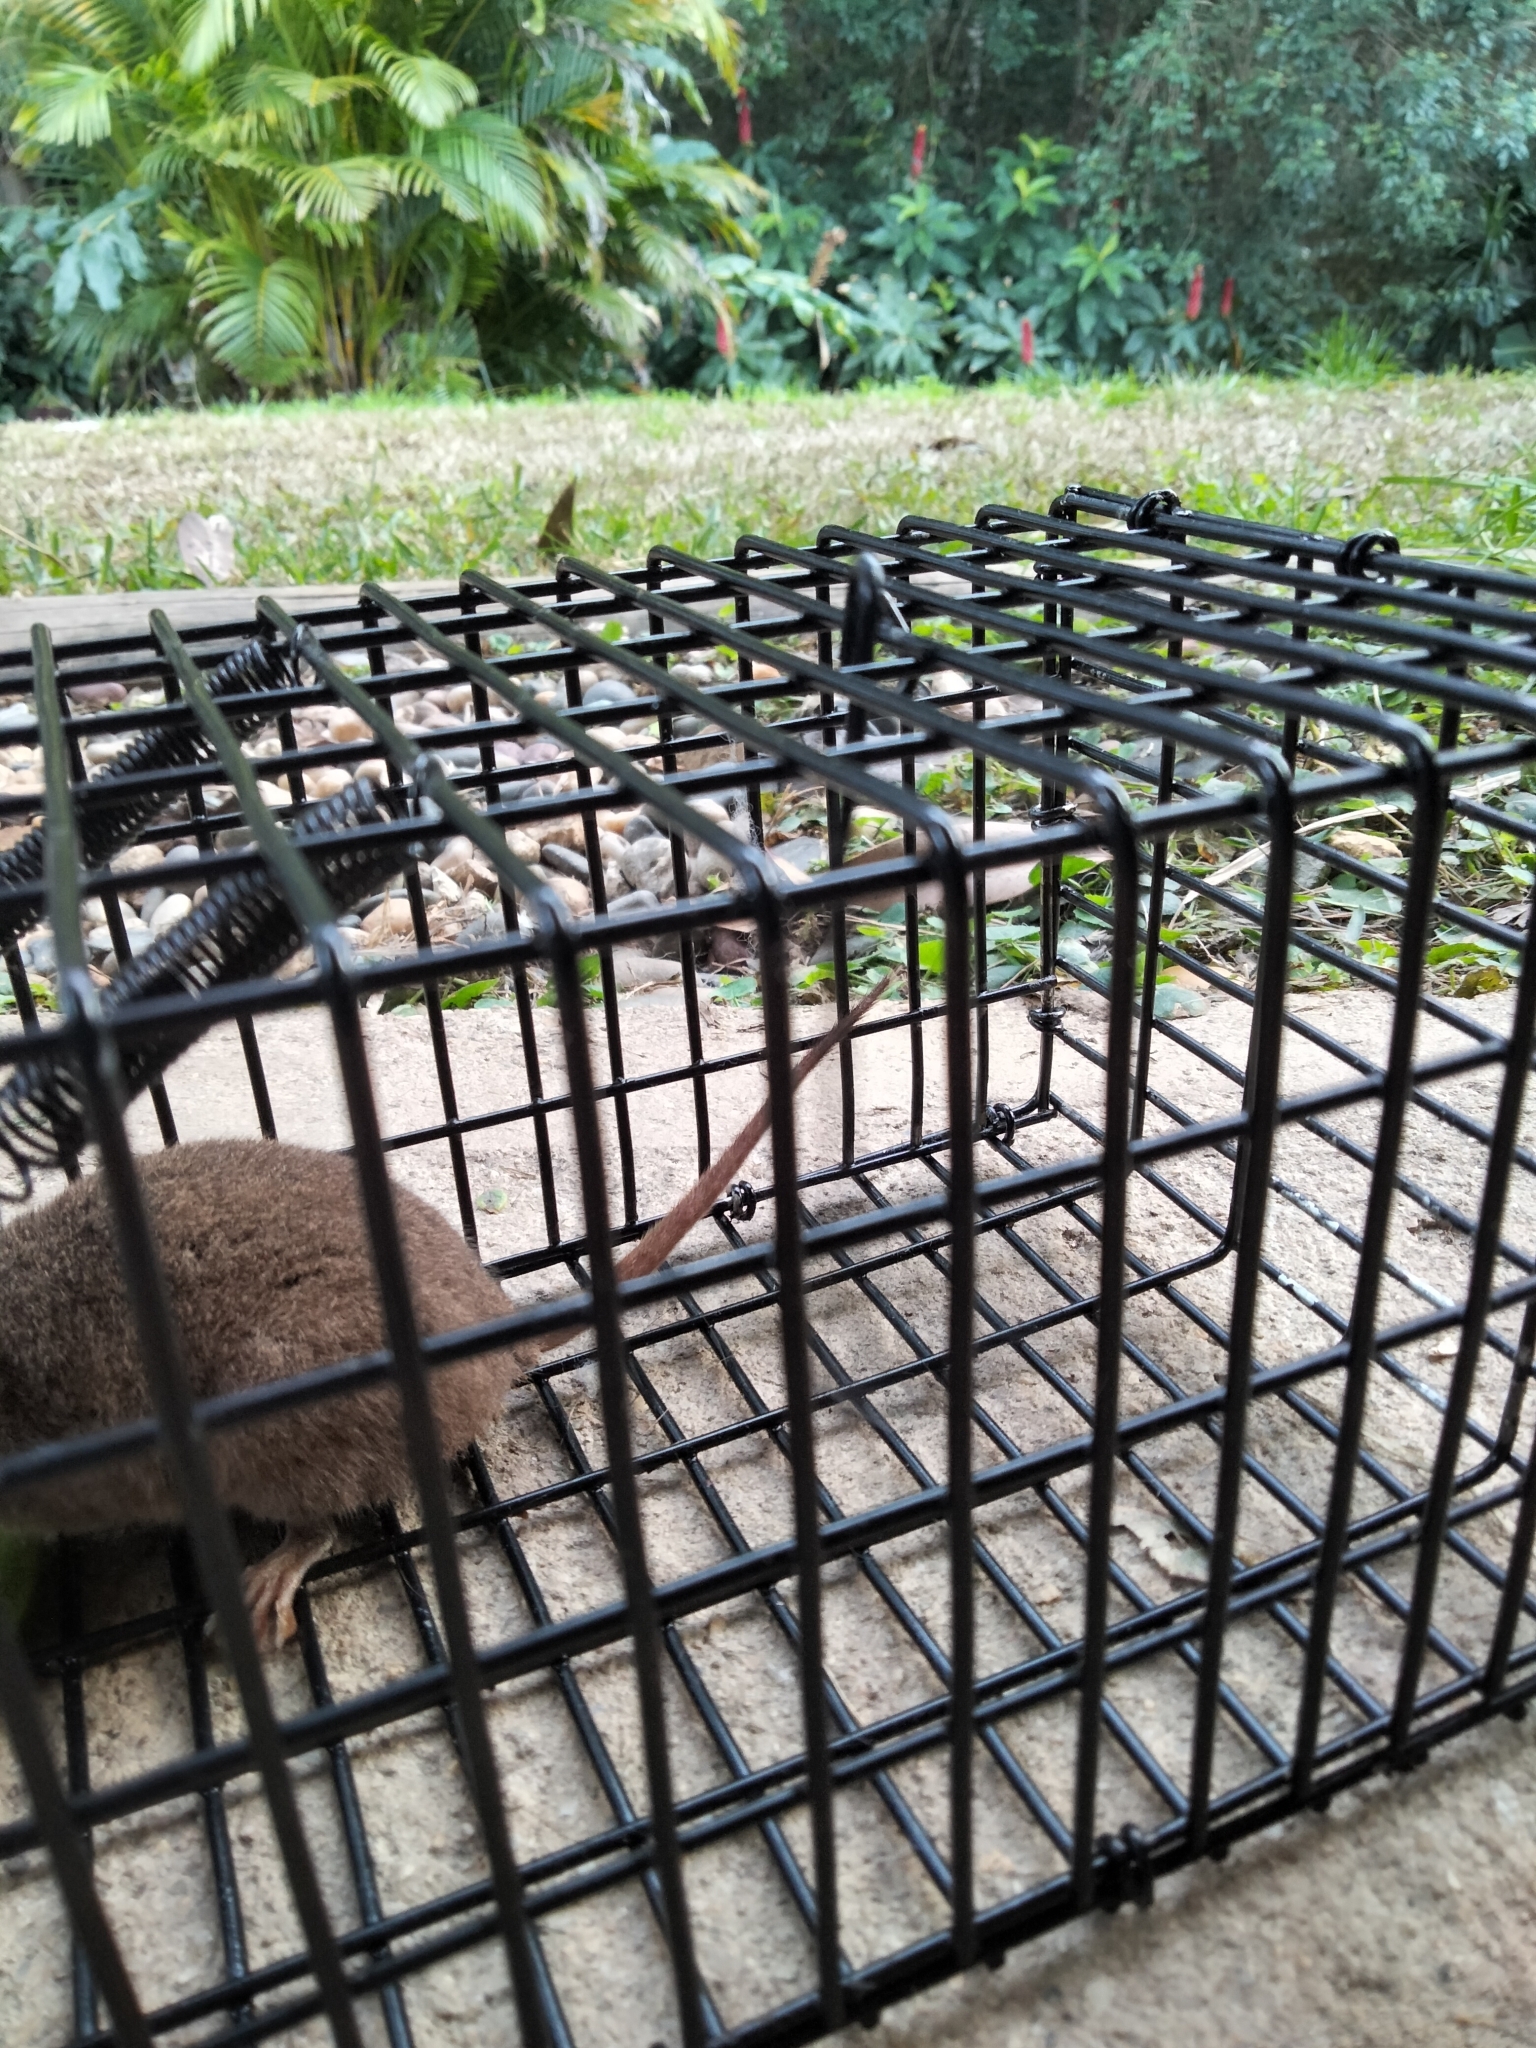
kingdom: Animalia
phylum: Chordata
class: Mammalia
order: Dasyuromorphia
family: Dasyuridae
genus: Antechinus
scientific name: Antechinus stuartii
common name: Brown antechinus
